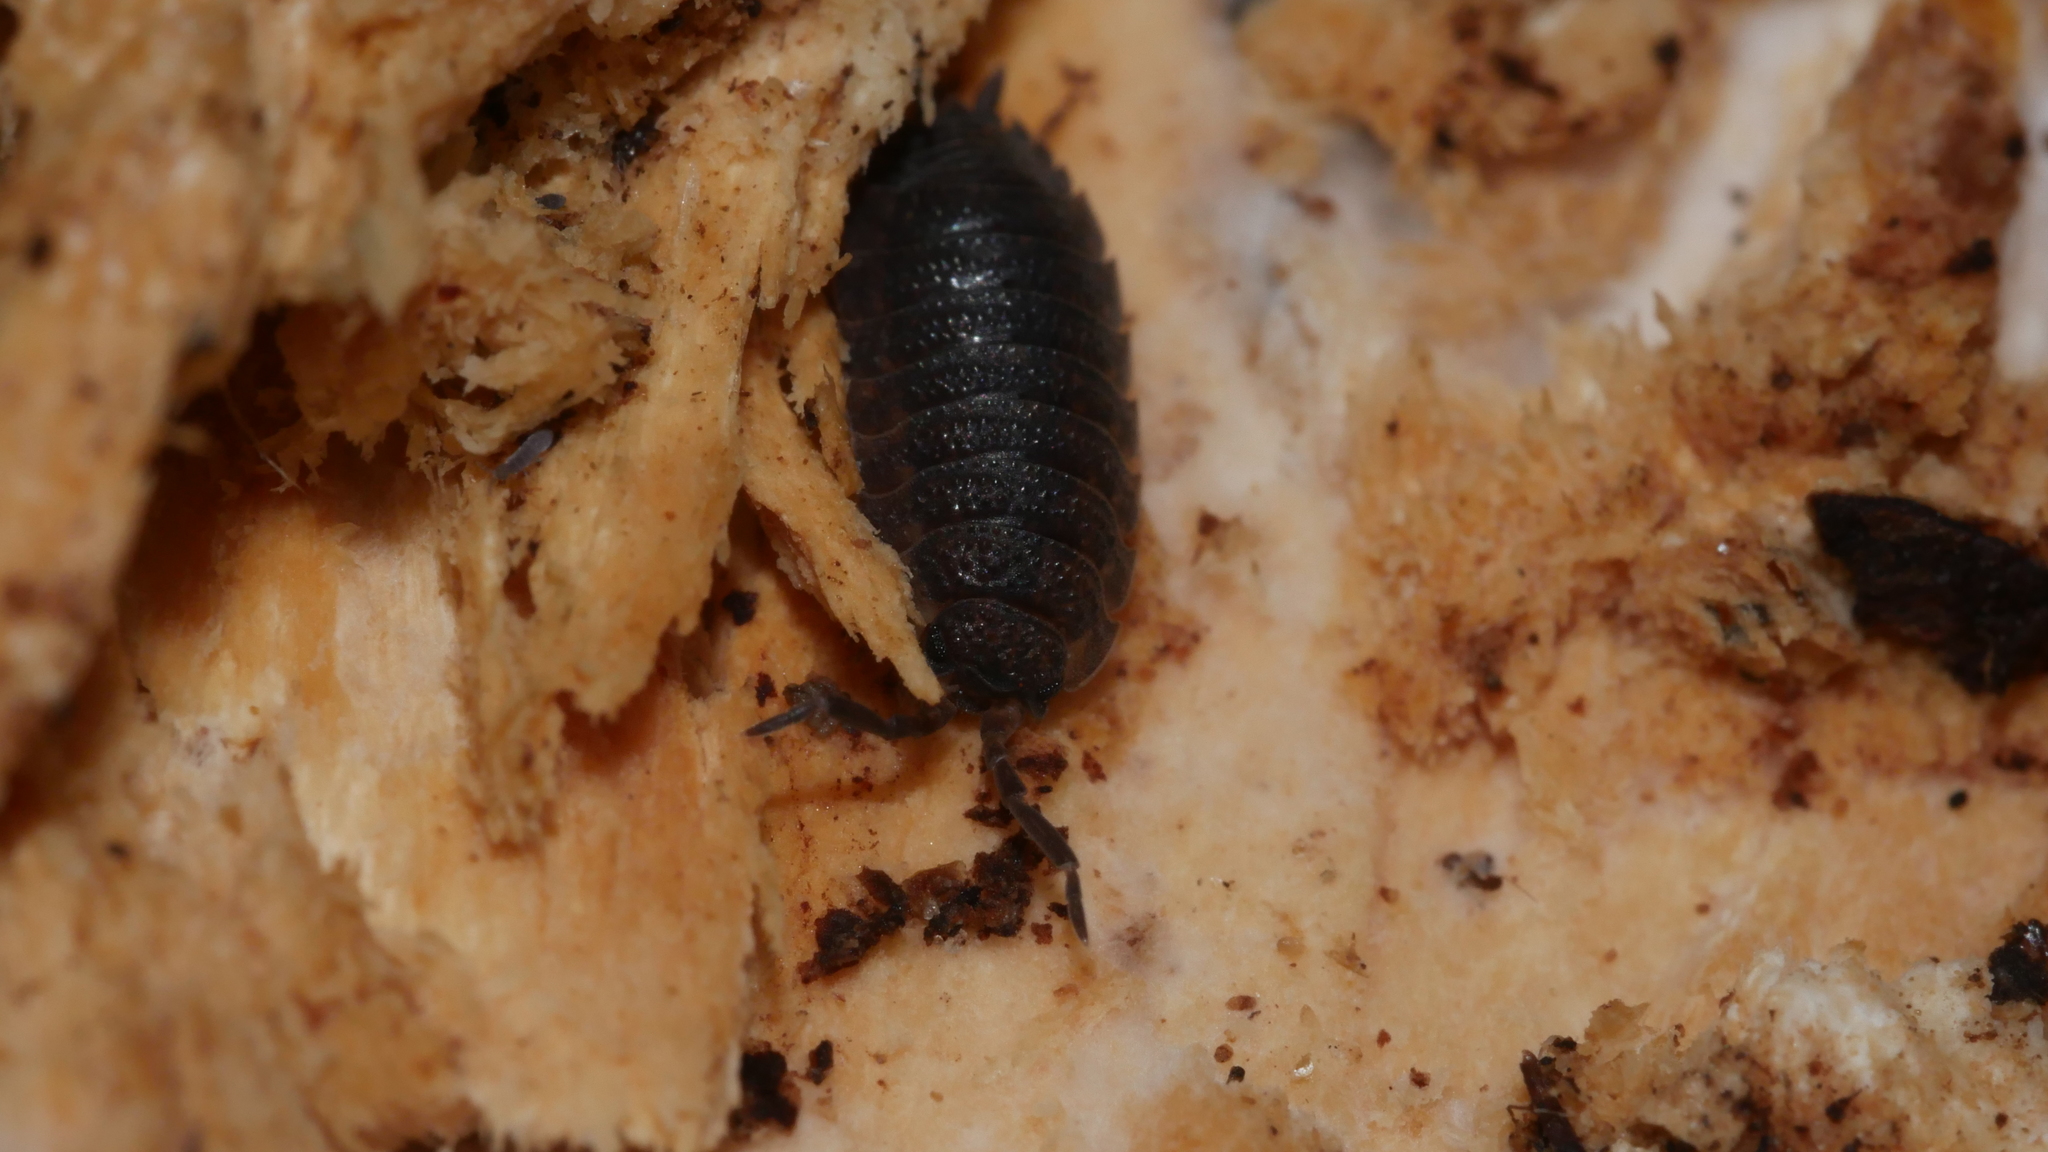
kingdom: Animalia
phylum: Arthropoda
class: Malacostraca
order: Isopoda
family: Porcellionidae
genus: Porcellio
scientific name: Porcellio scaber
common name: Common rough woodlouse
